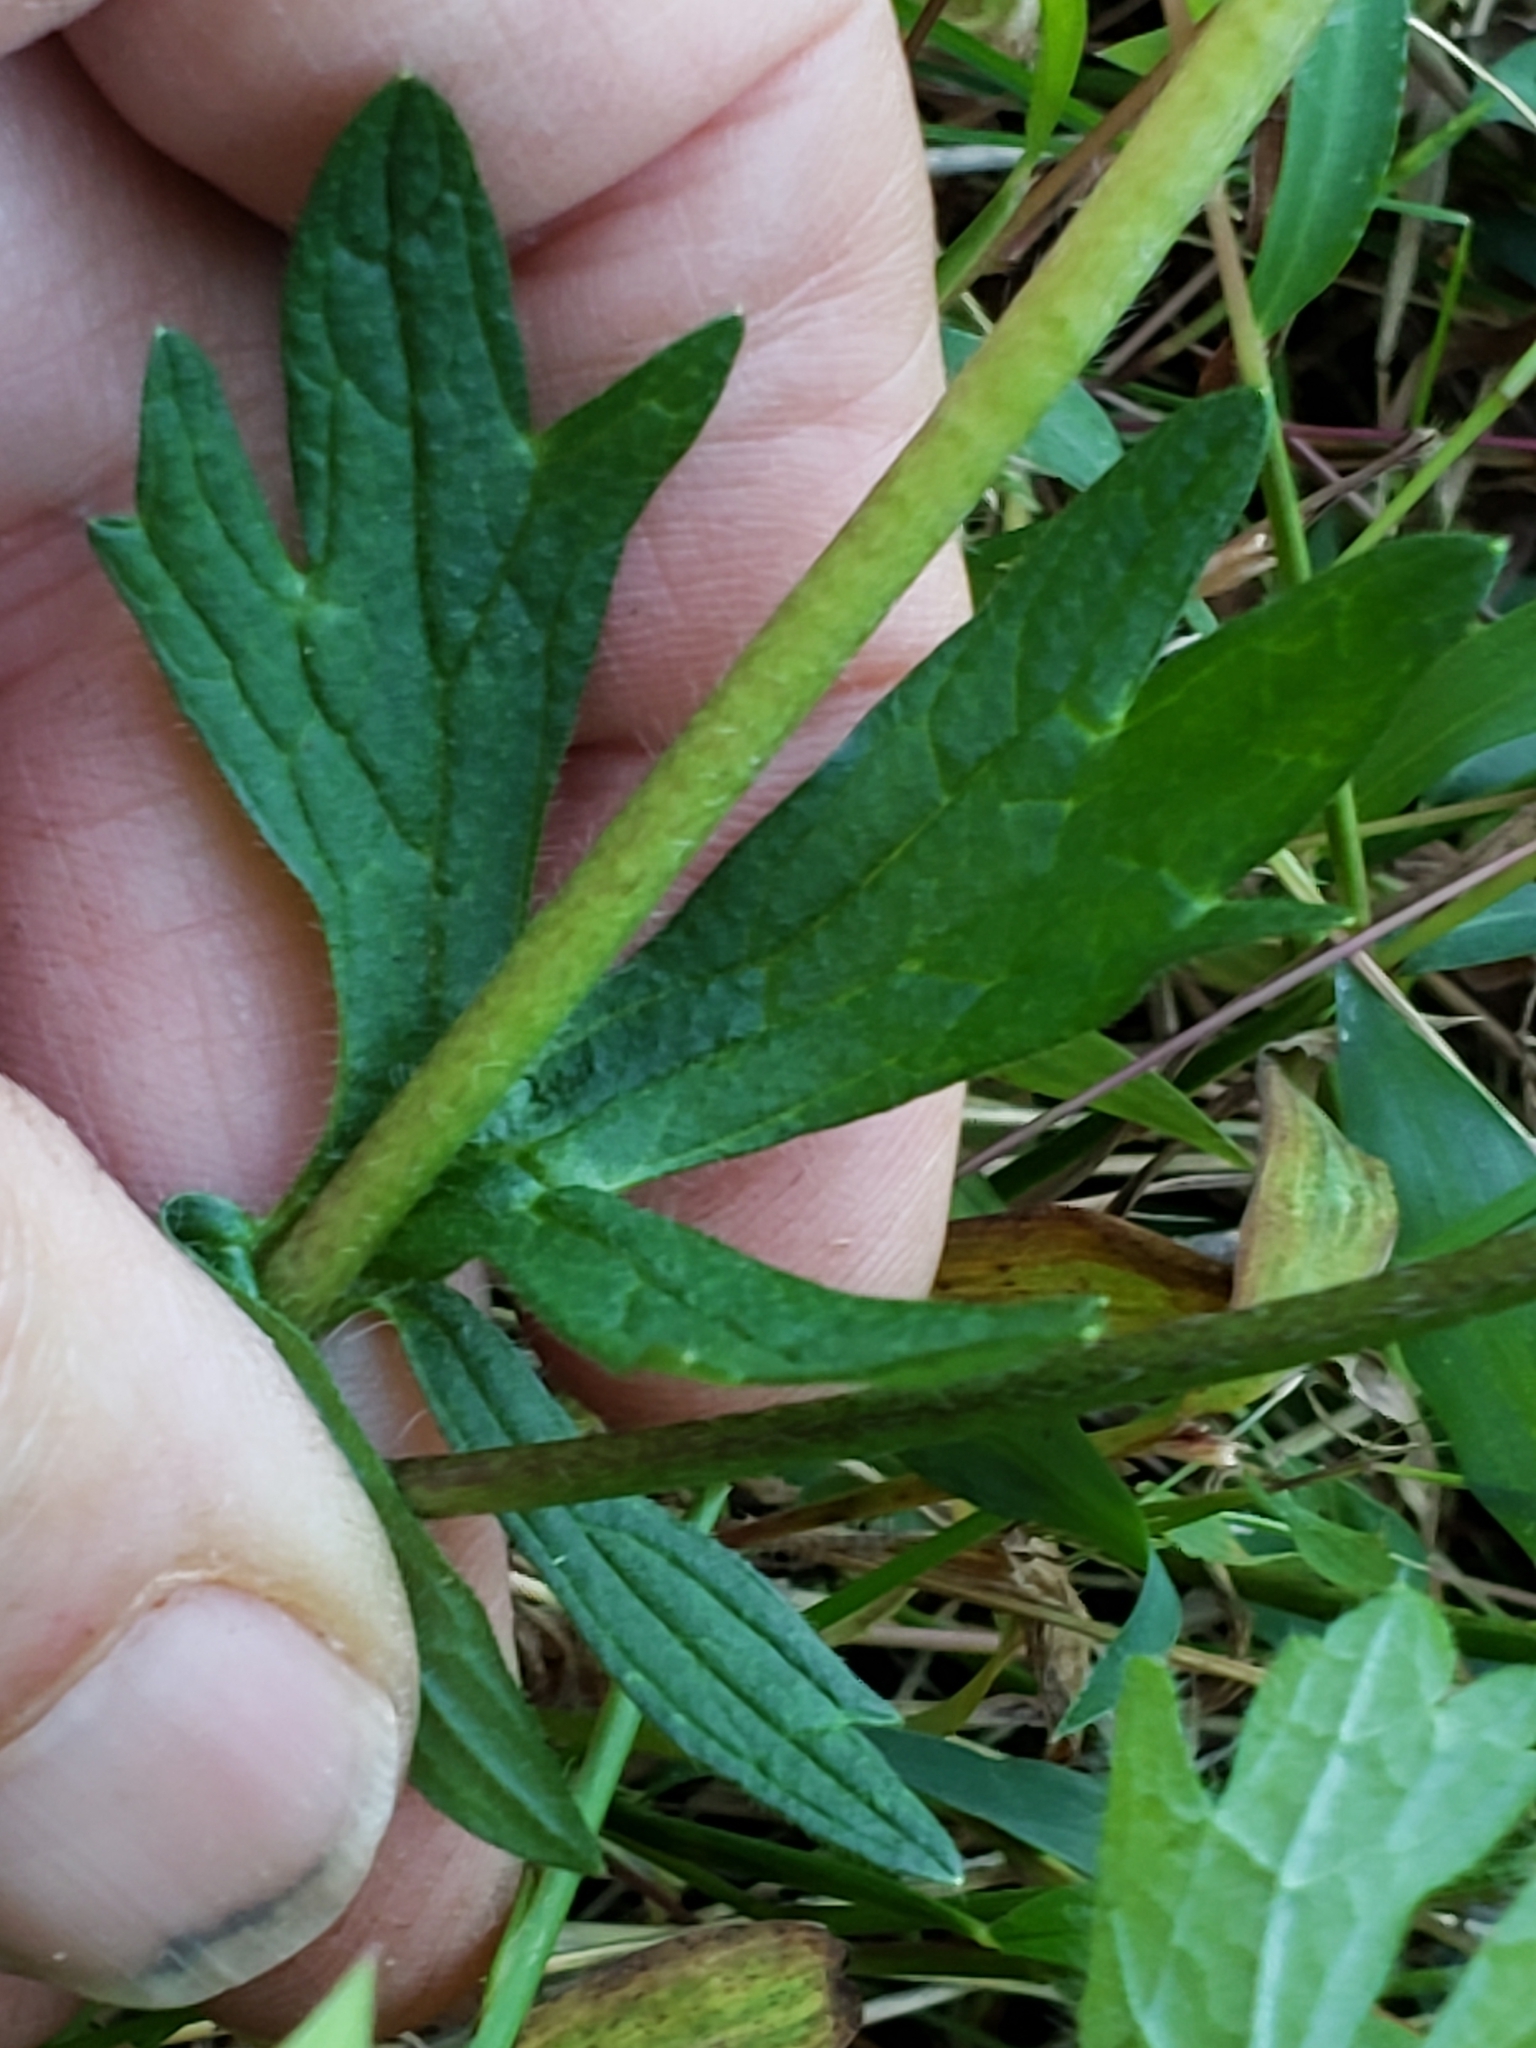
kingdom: Plantae
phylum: Tracheophyta
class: Magnoliopsida
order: Ranunculales
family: Ranunculaceae
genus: Ranunculus
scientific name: Ranunculus bulbosus
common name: Bulbous buttercup
